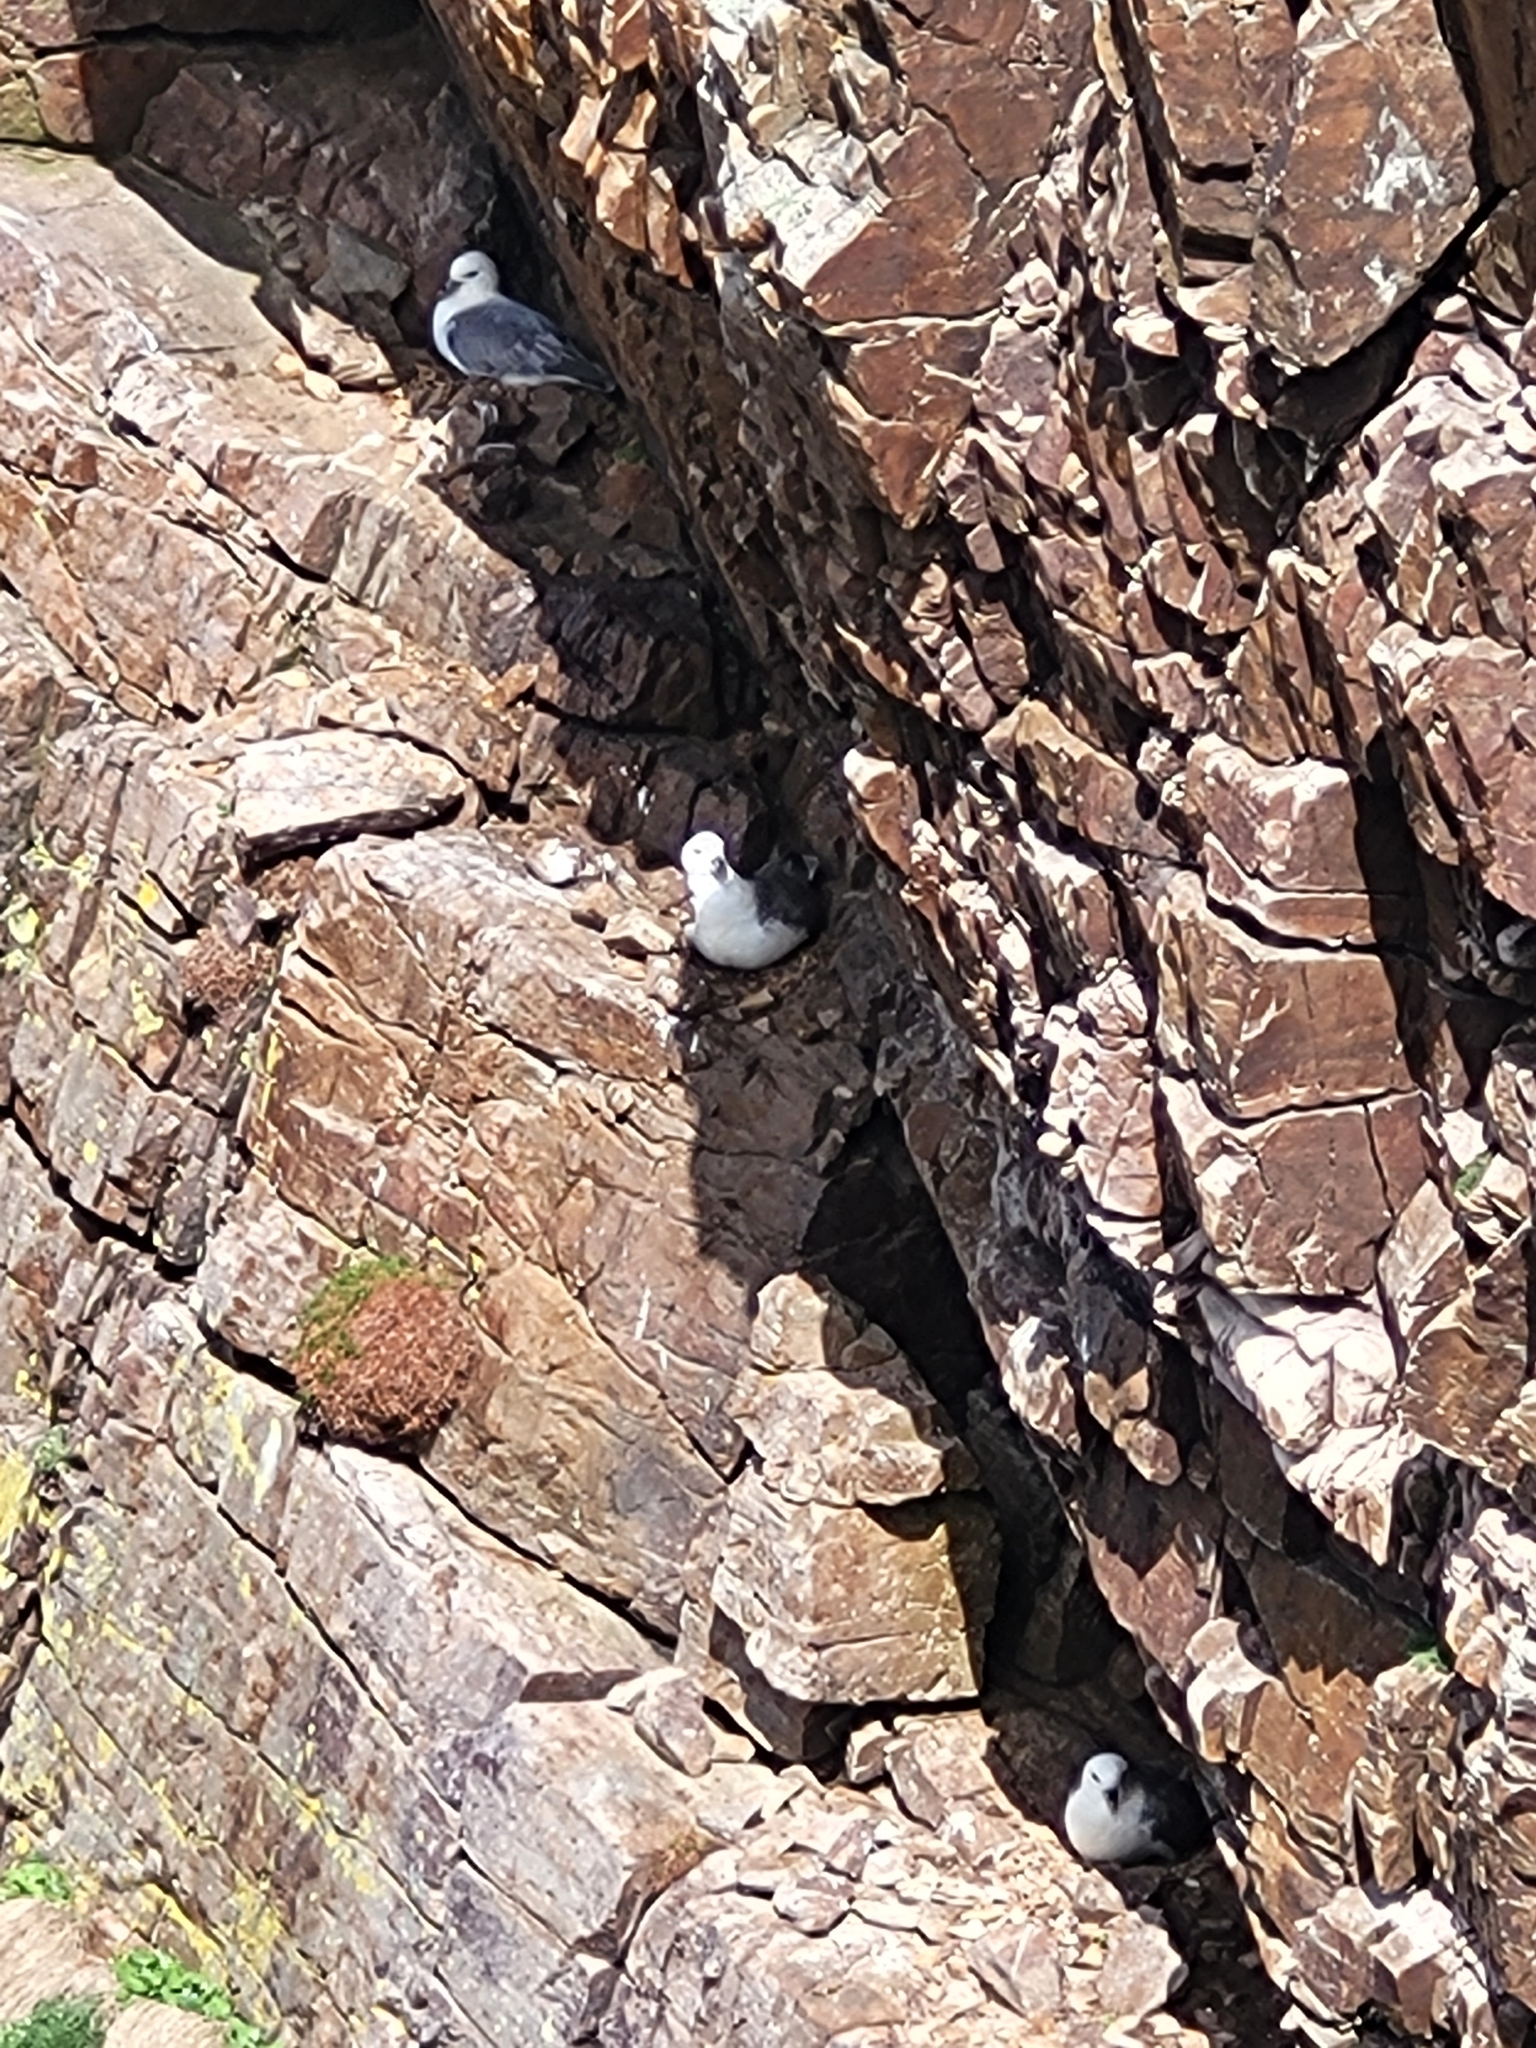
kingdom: Animalia
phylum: Chordata
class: Aves
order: Procellariiformes
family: Procellariidae
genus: Fulmarus
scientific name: Fulmarus glacialis
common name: Northern fulmar
